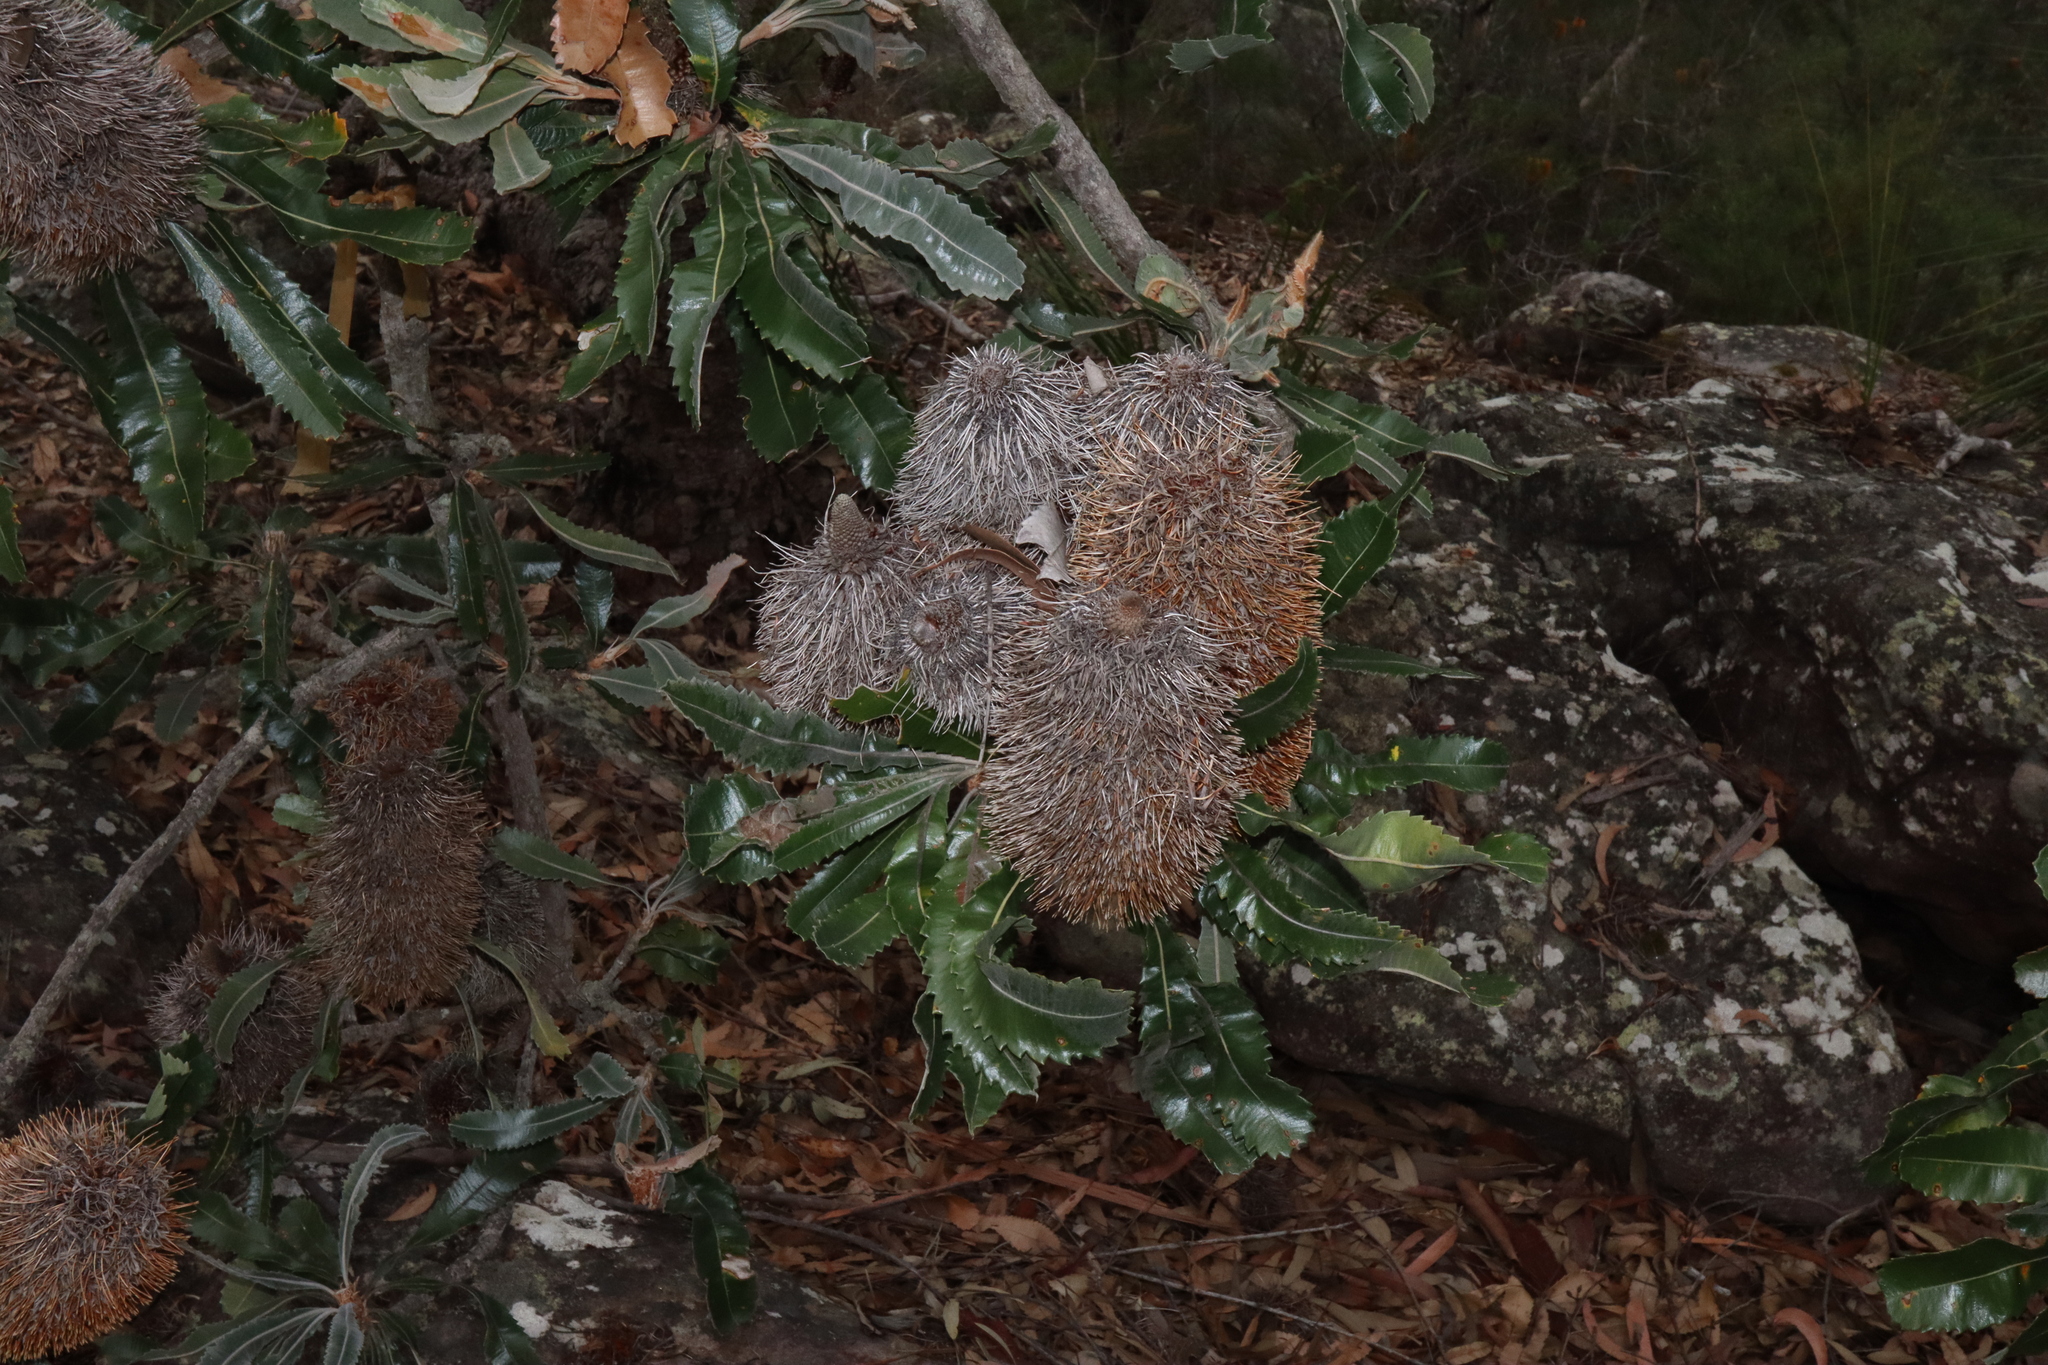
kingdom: Plantae
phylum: Tracheophyta
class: Magnoliopsida
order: Proteales
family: Proteaceae
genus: Banksia
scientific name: Banksia serrata
